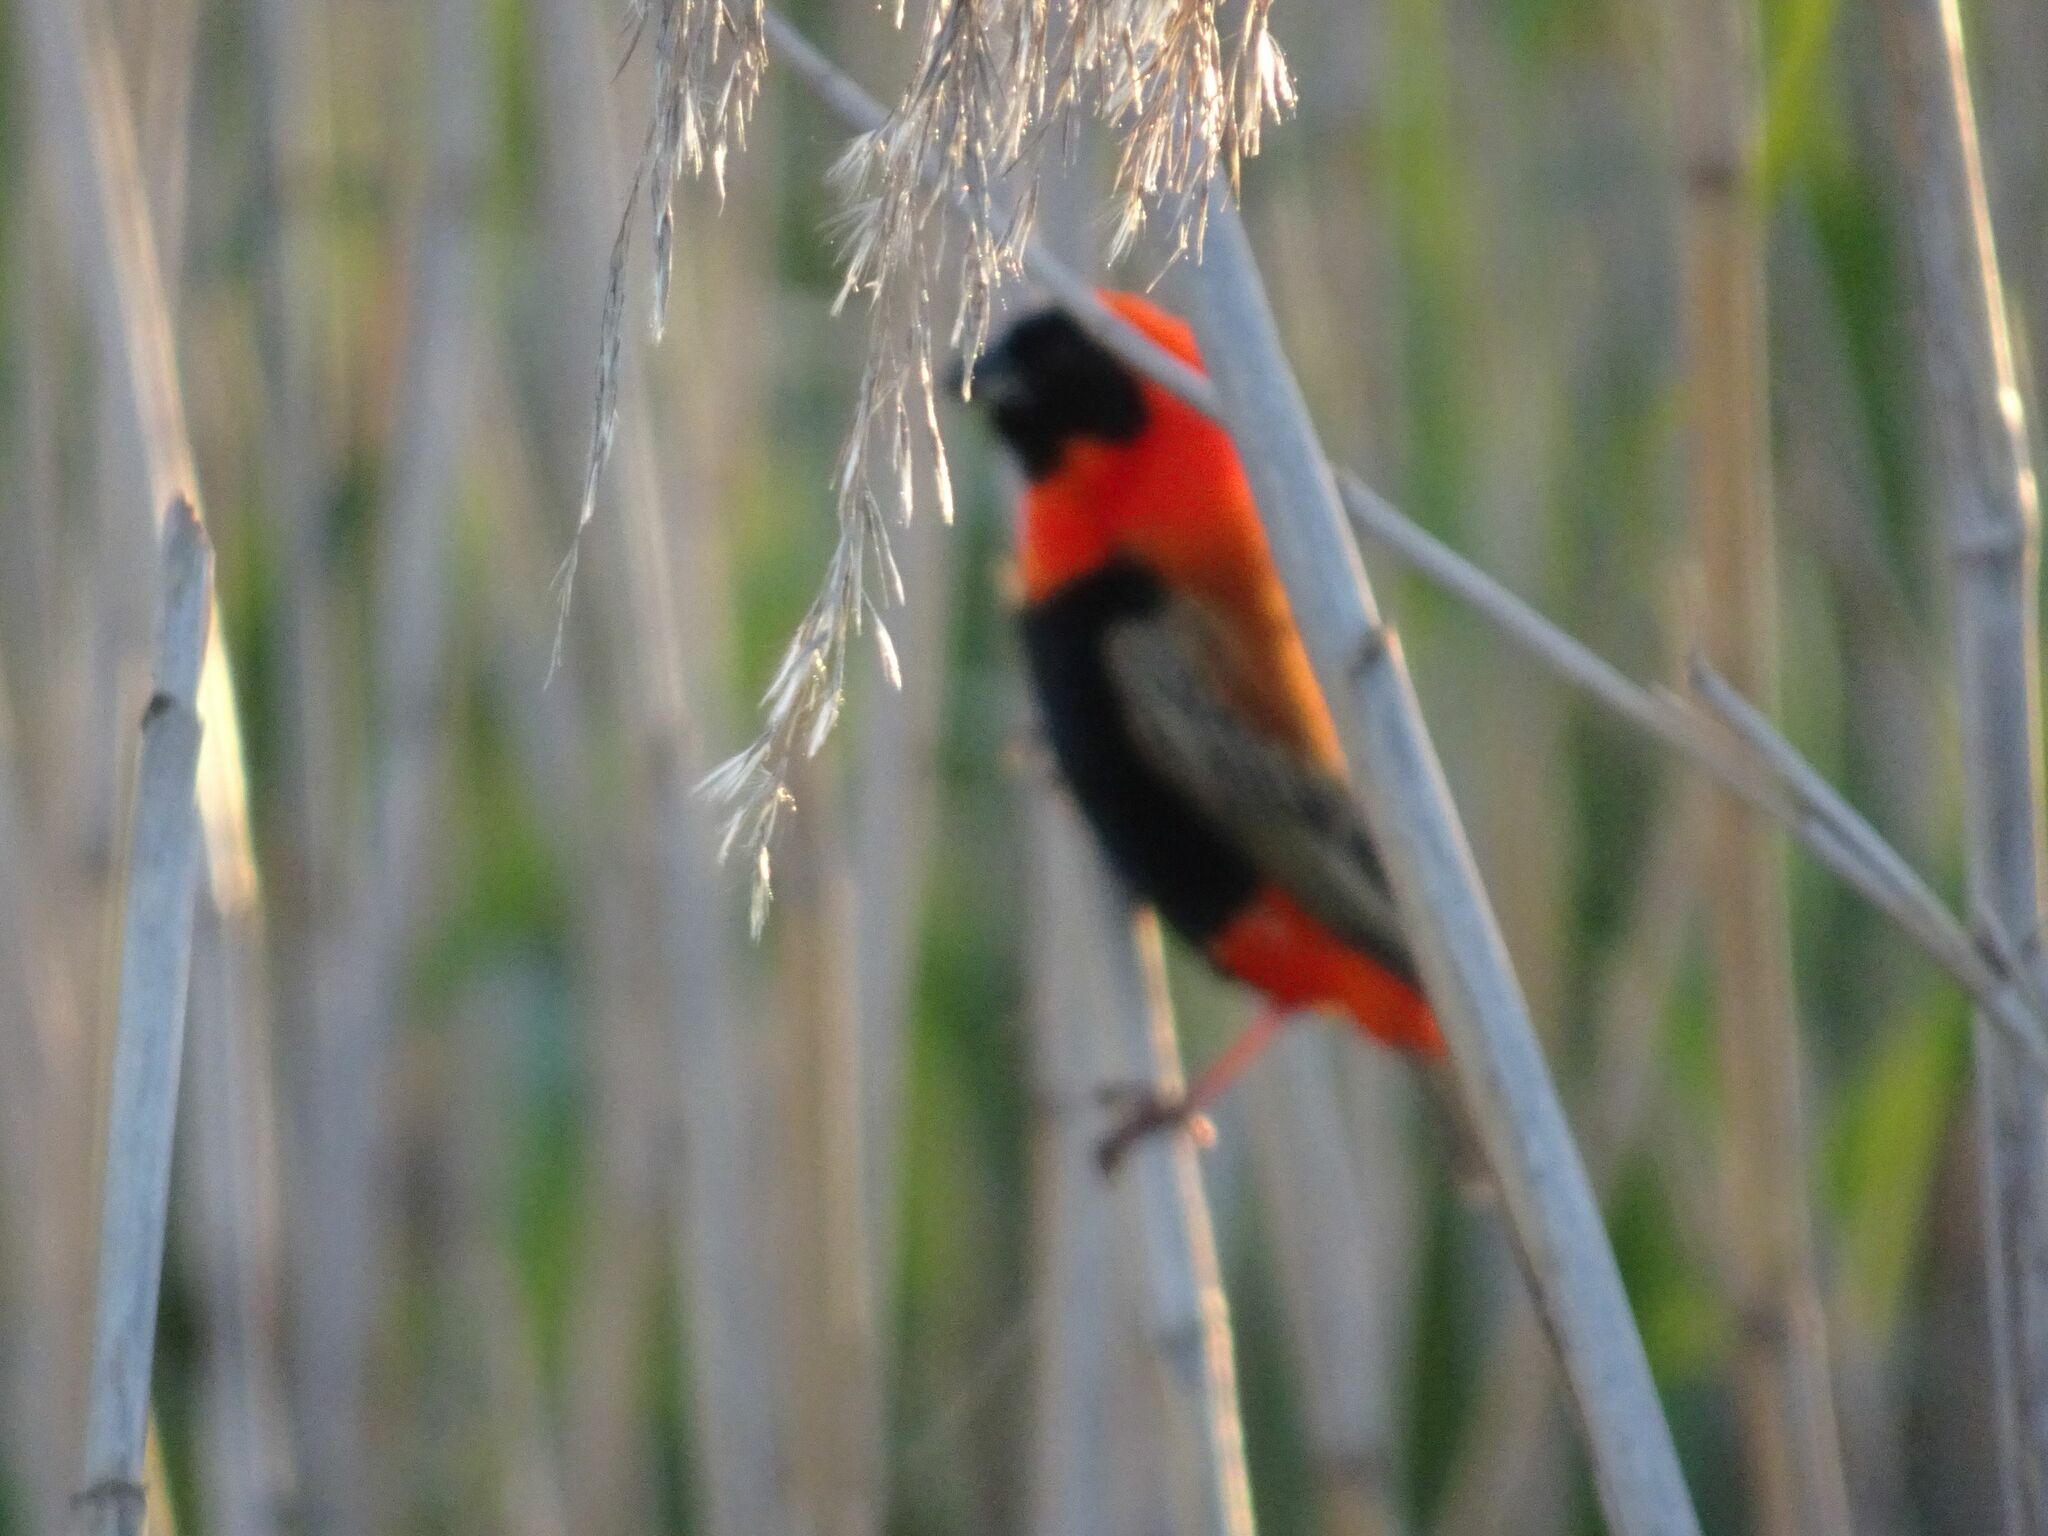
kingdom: Animalia
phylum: Chordata
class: Aves
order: Passeriformes
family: Ploceidae
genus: Euplectes
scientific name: Euplectes orix
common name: Southern red bishop
